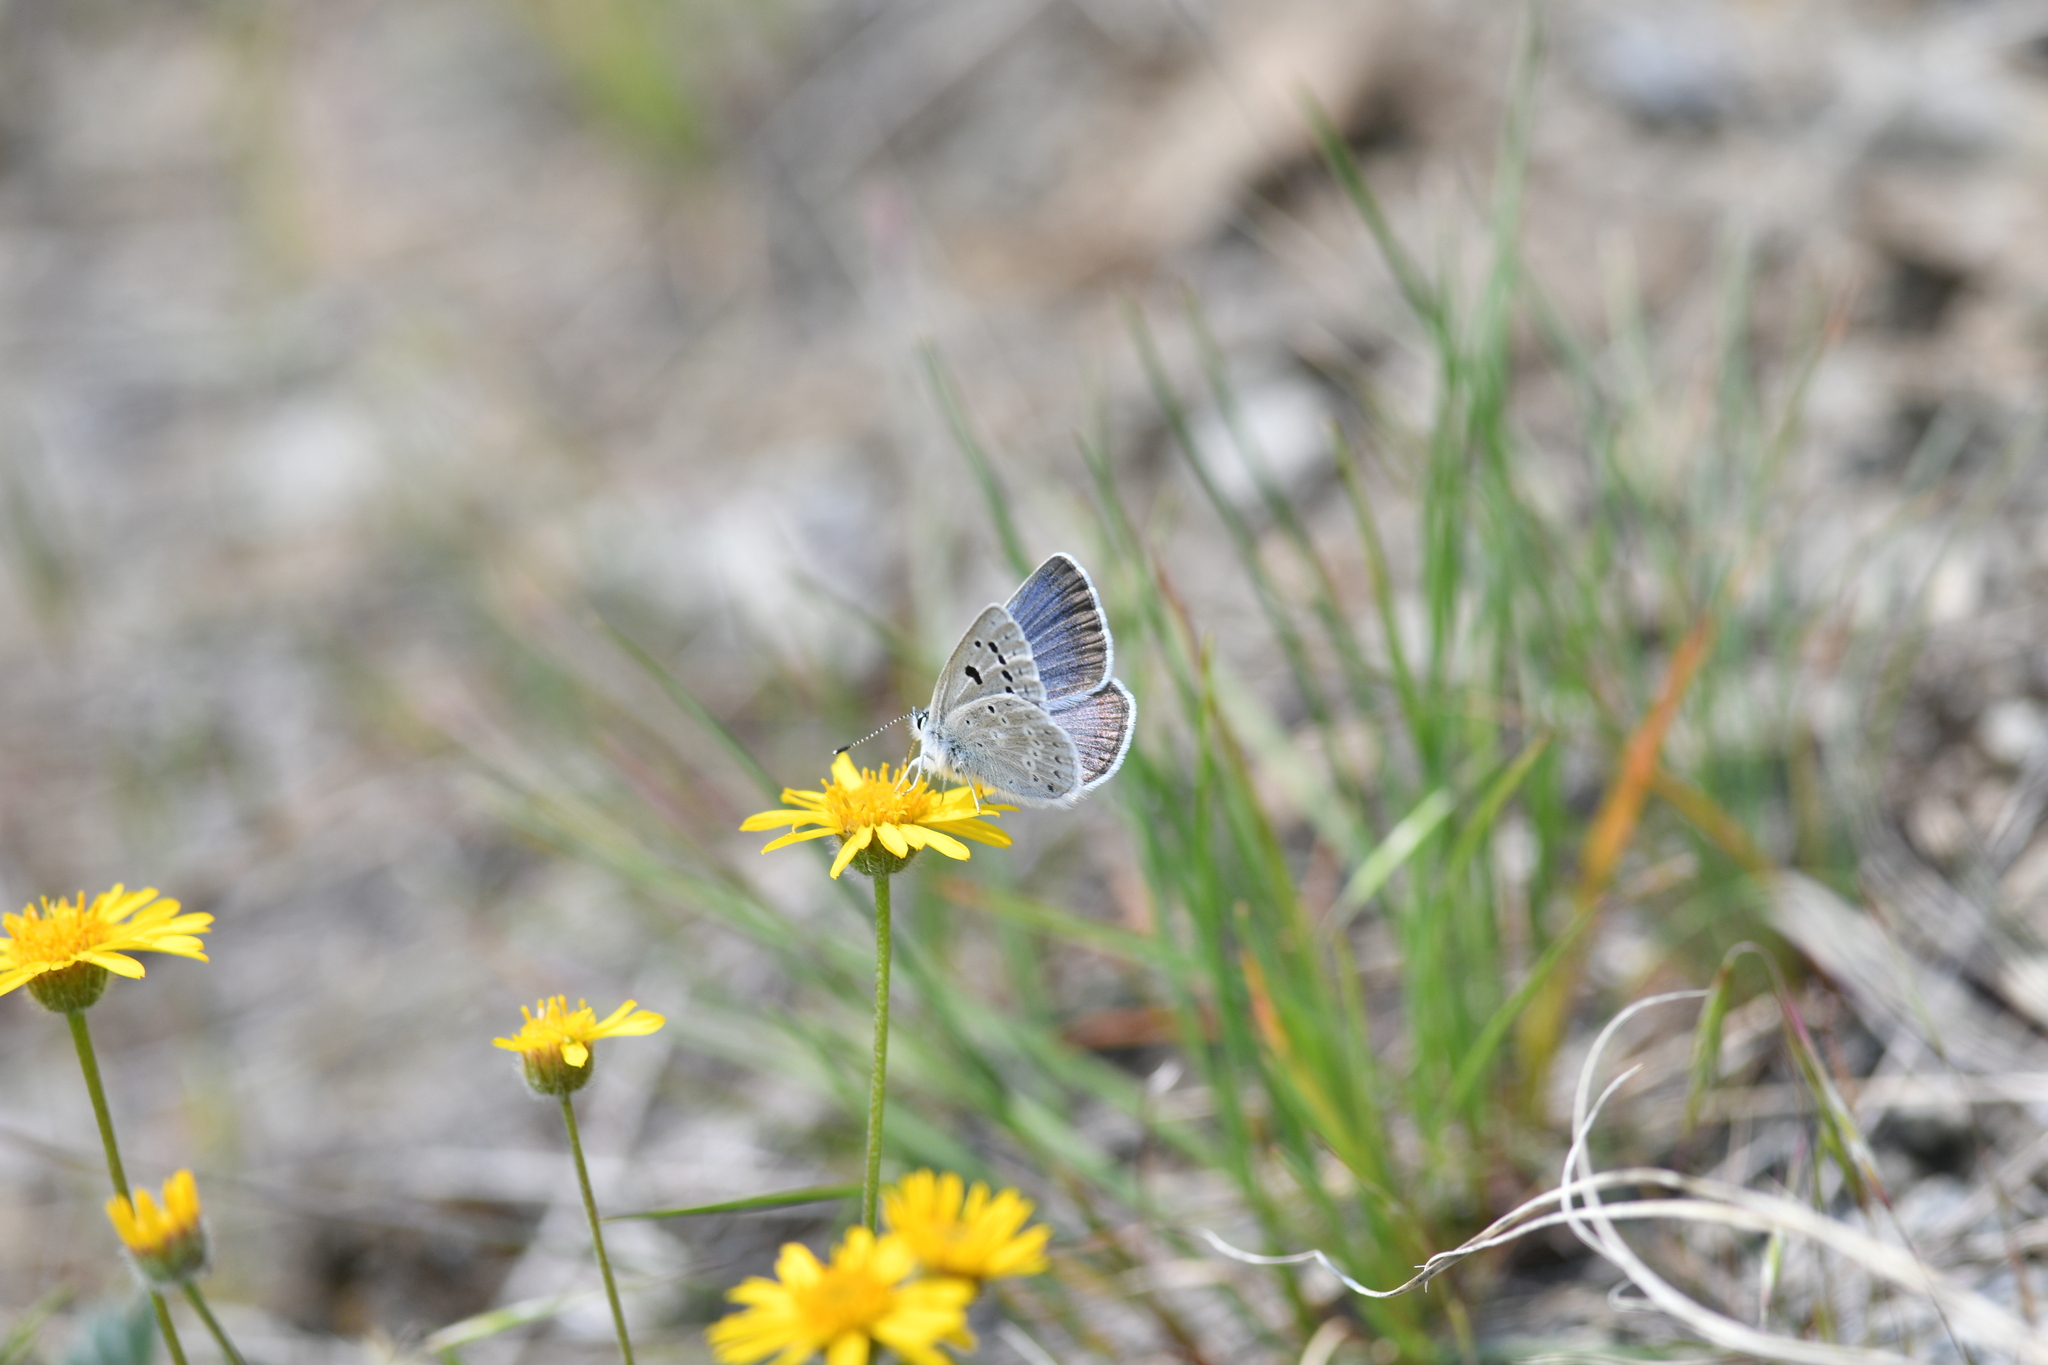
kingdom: Animalia
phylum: Arthropoda
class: Insecta
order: Lepidoptera
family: Lycaenidae
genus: Icaricia
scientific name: Icaricia icarioides
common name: Boisduval's blue
